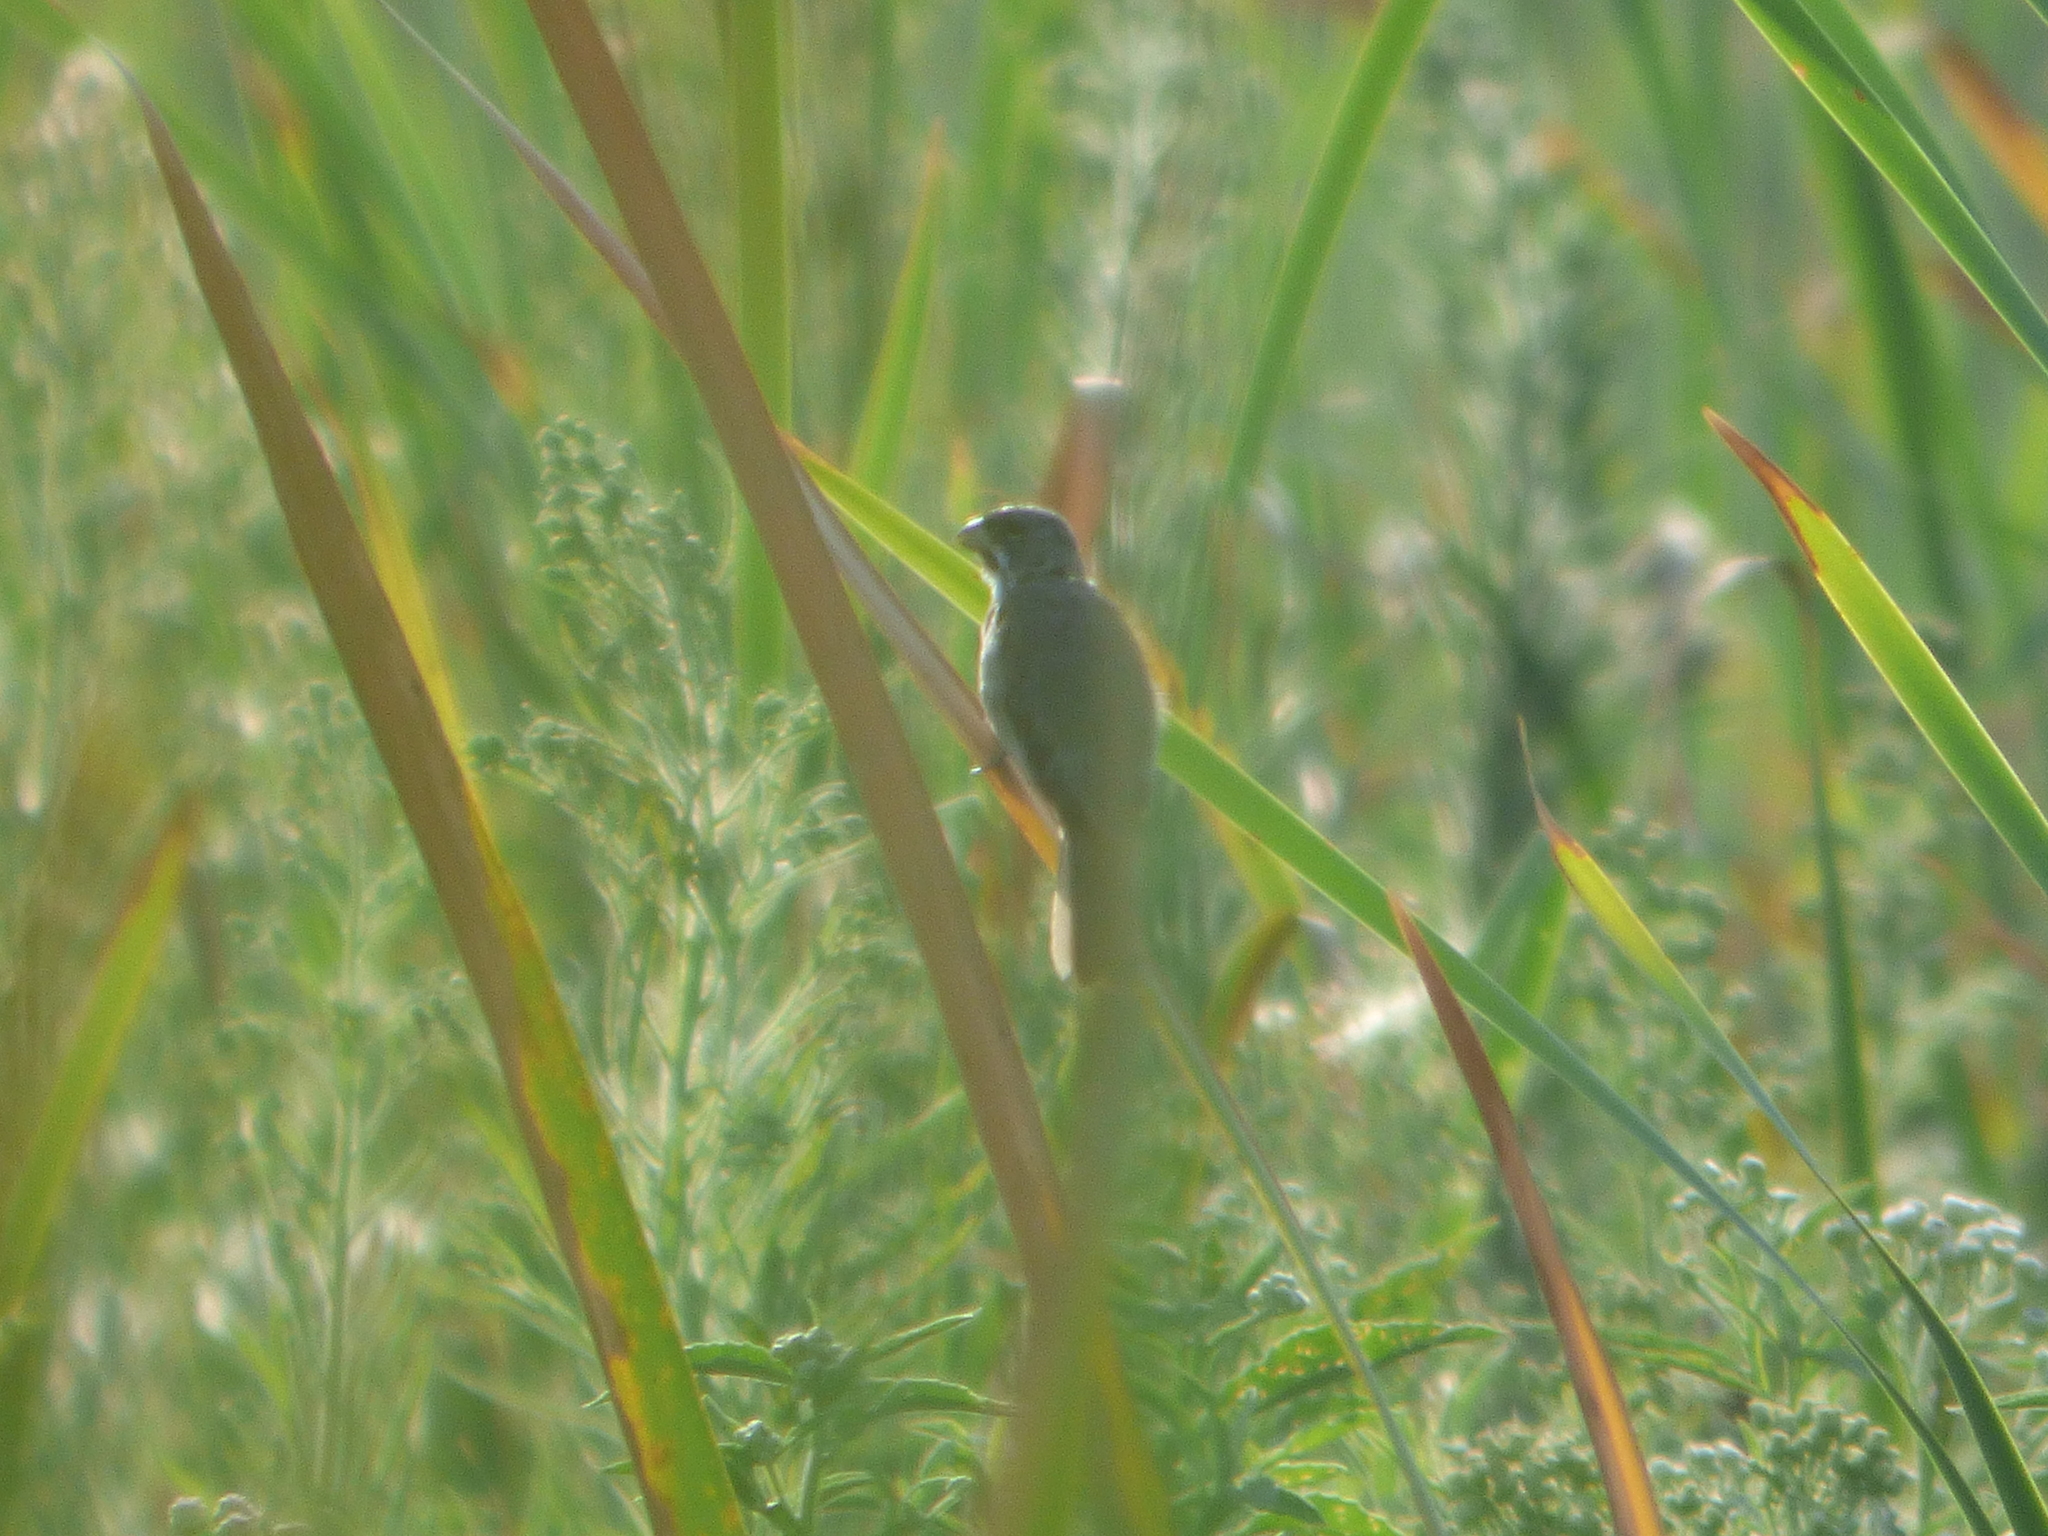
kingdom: Animalia
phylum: Chordata
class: Aves
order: Passeriformes
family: Thraupidae
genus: Sporophila
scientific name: Sporophila caerulescens
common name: Double-collared seedeater
